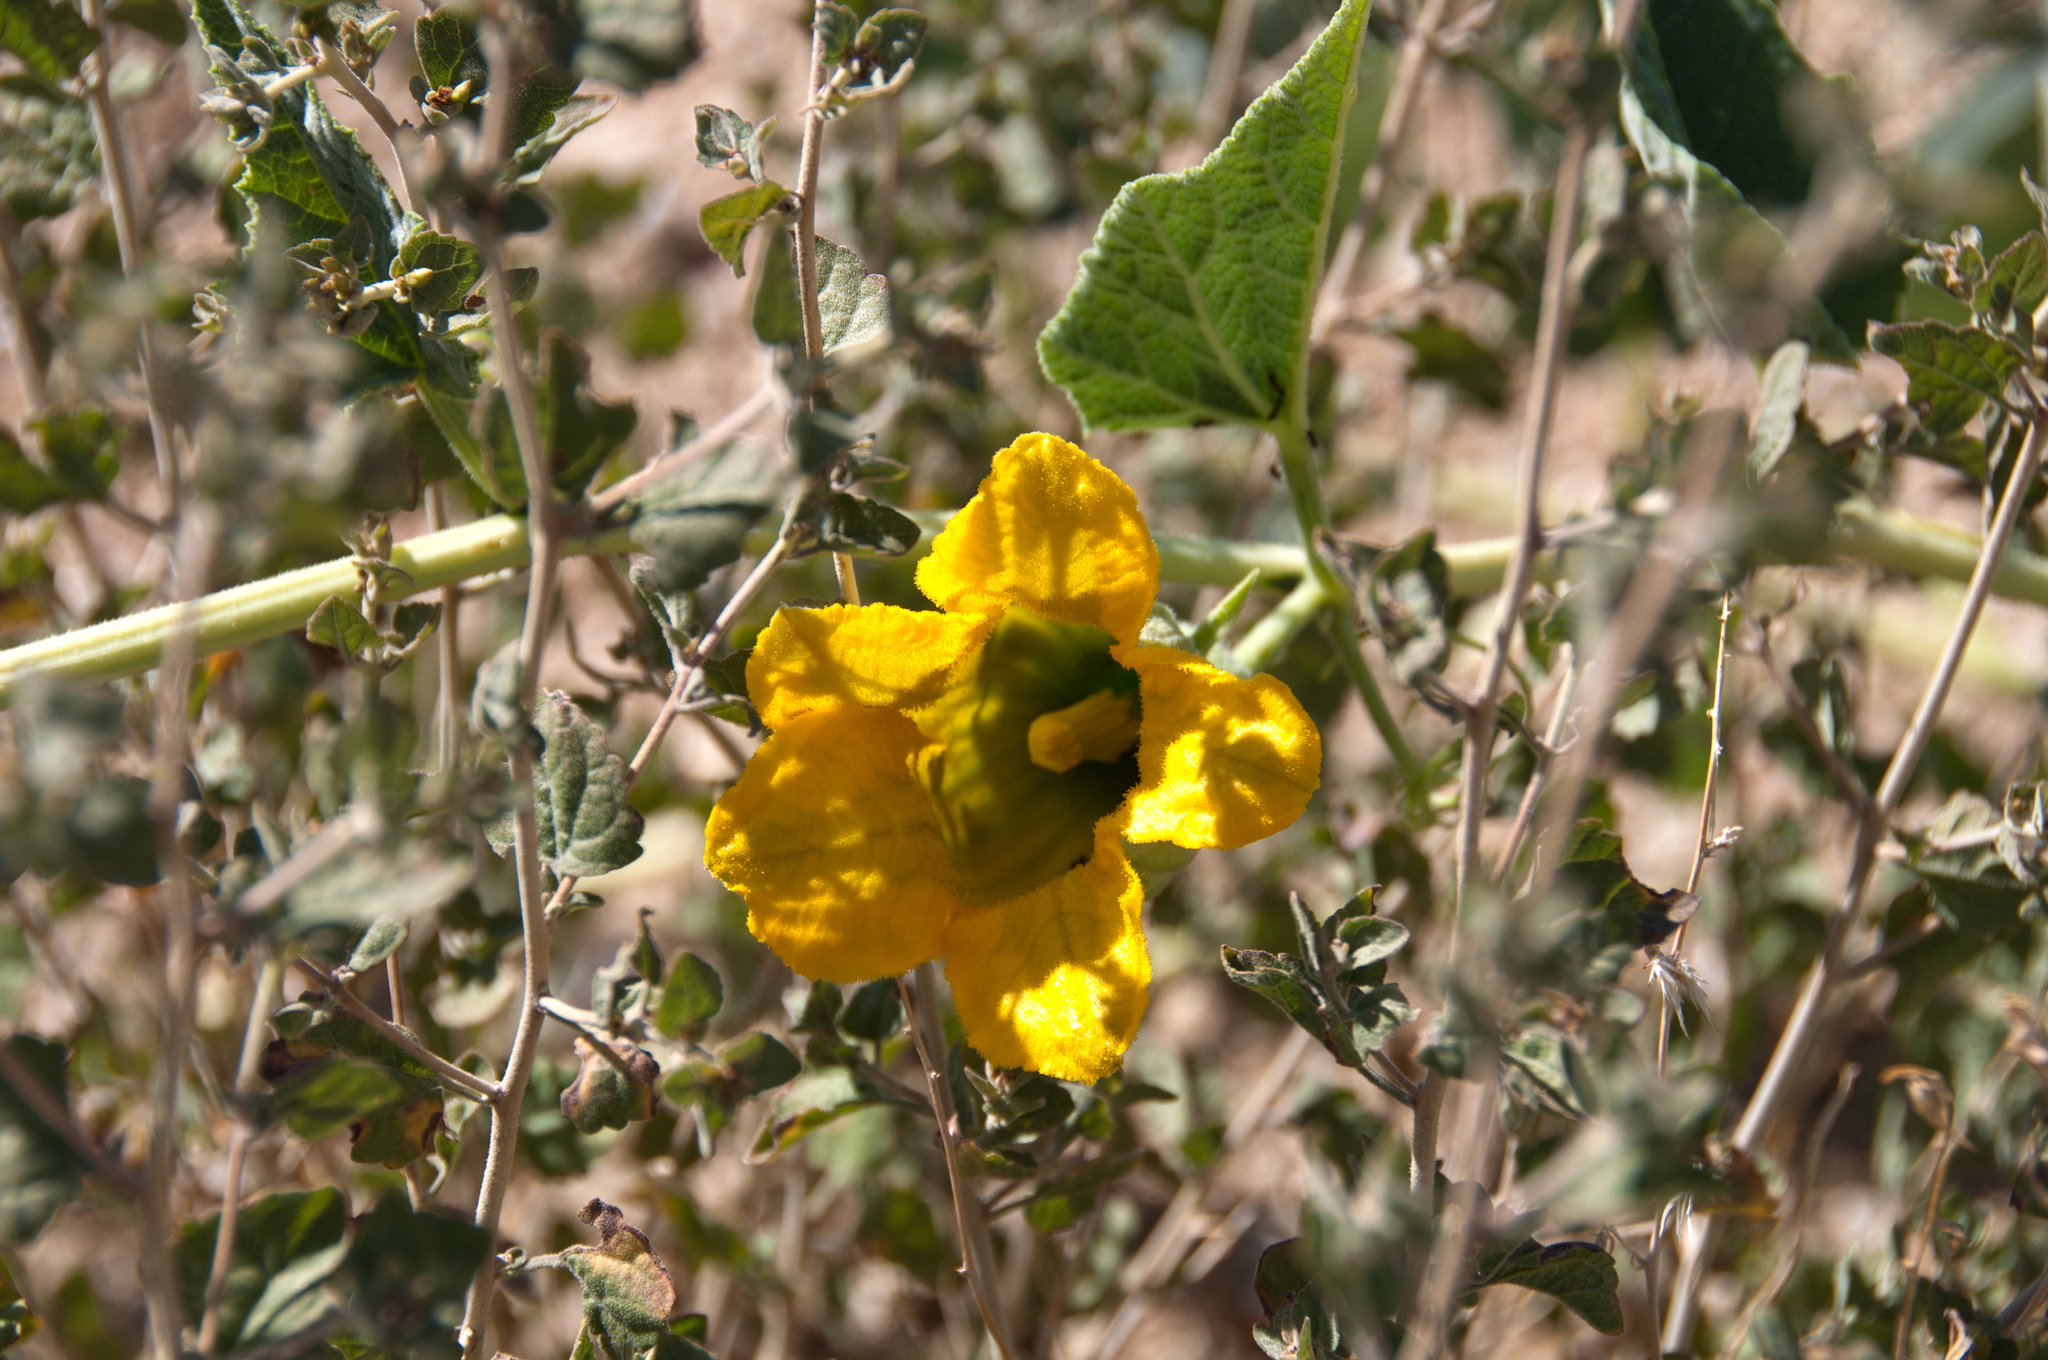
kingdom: Plantae
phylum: Tracheophyta
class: Magnoliopsida
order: Cucurbitales
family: Cucurbitaceae
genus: Cucurbita
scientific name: Cucurbita foetidissima
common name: Buffalo gourd
